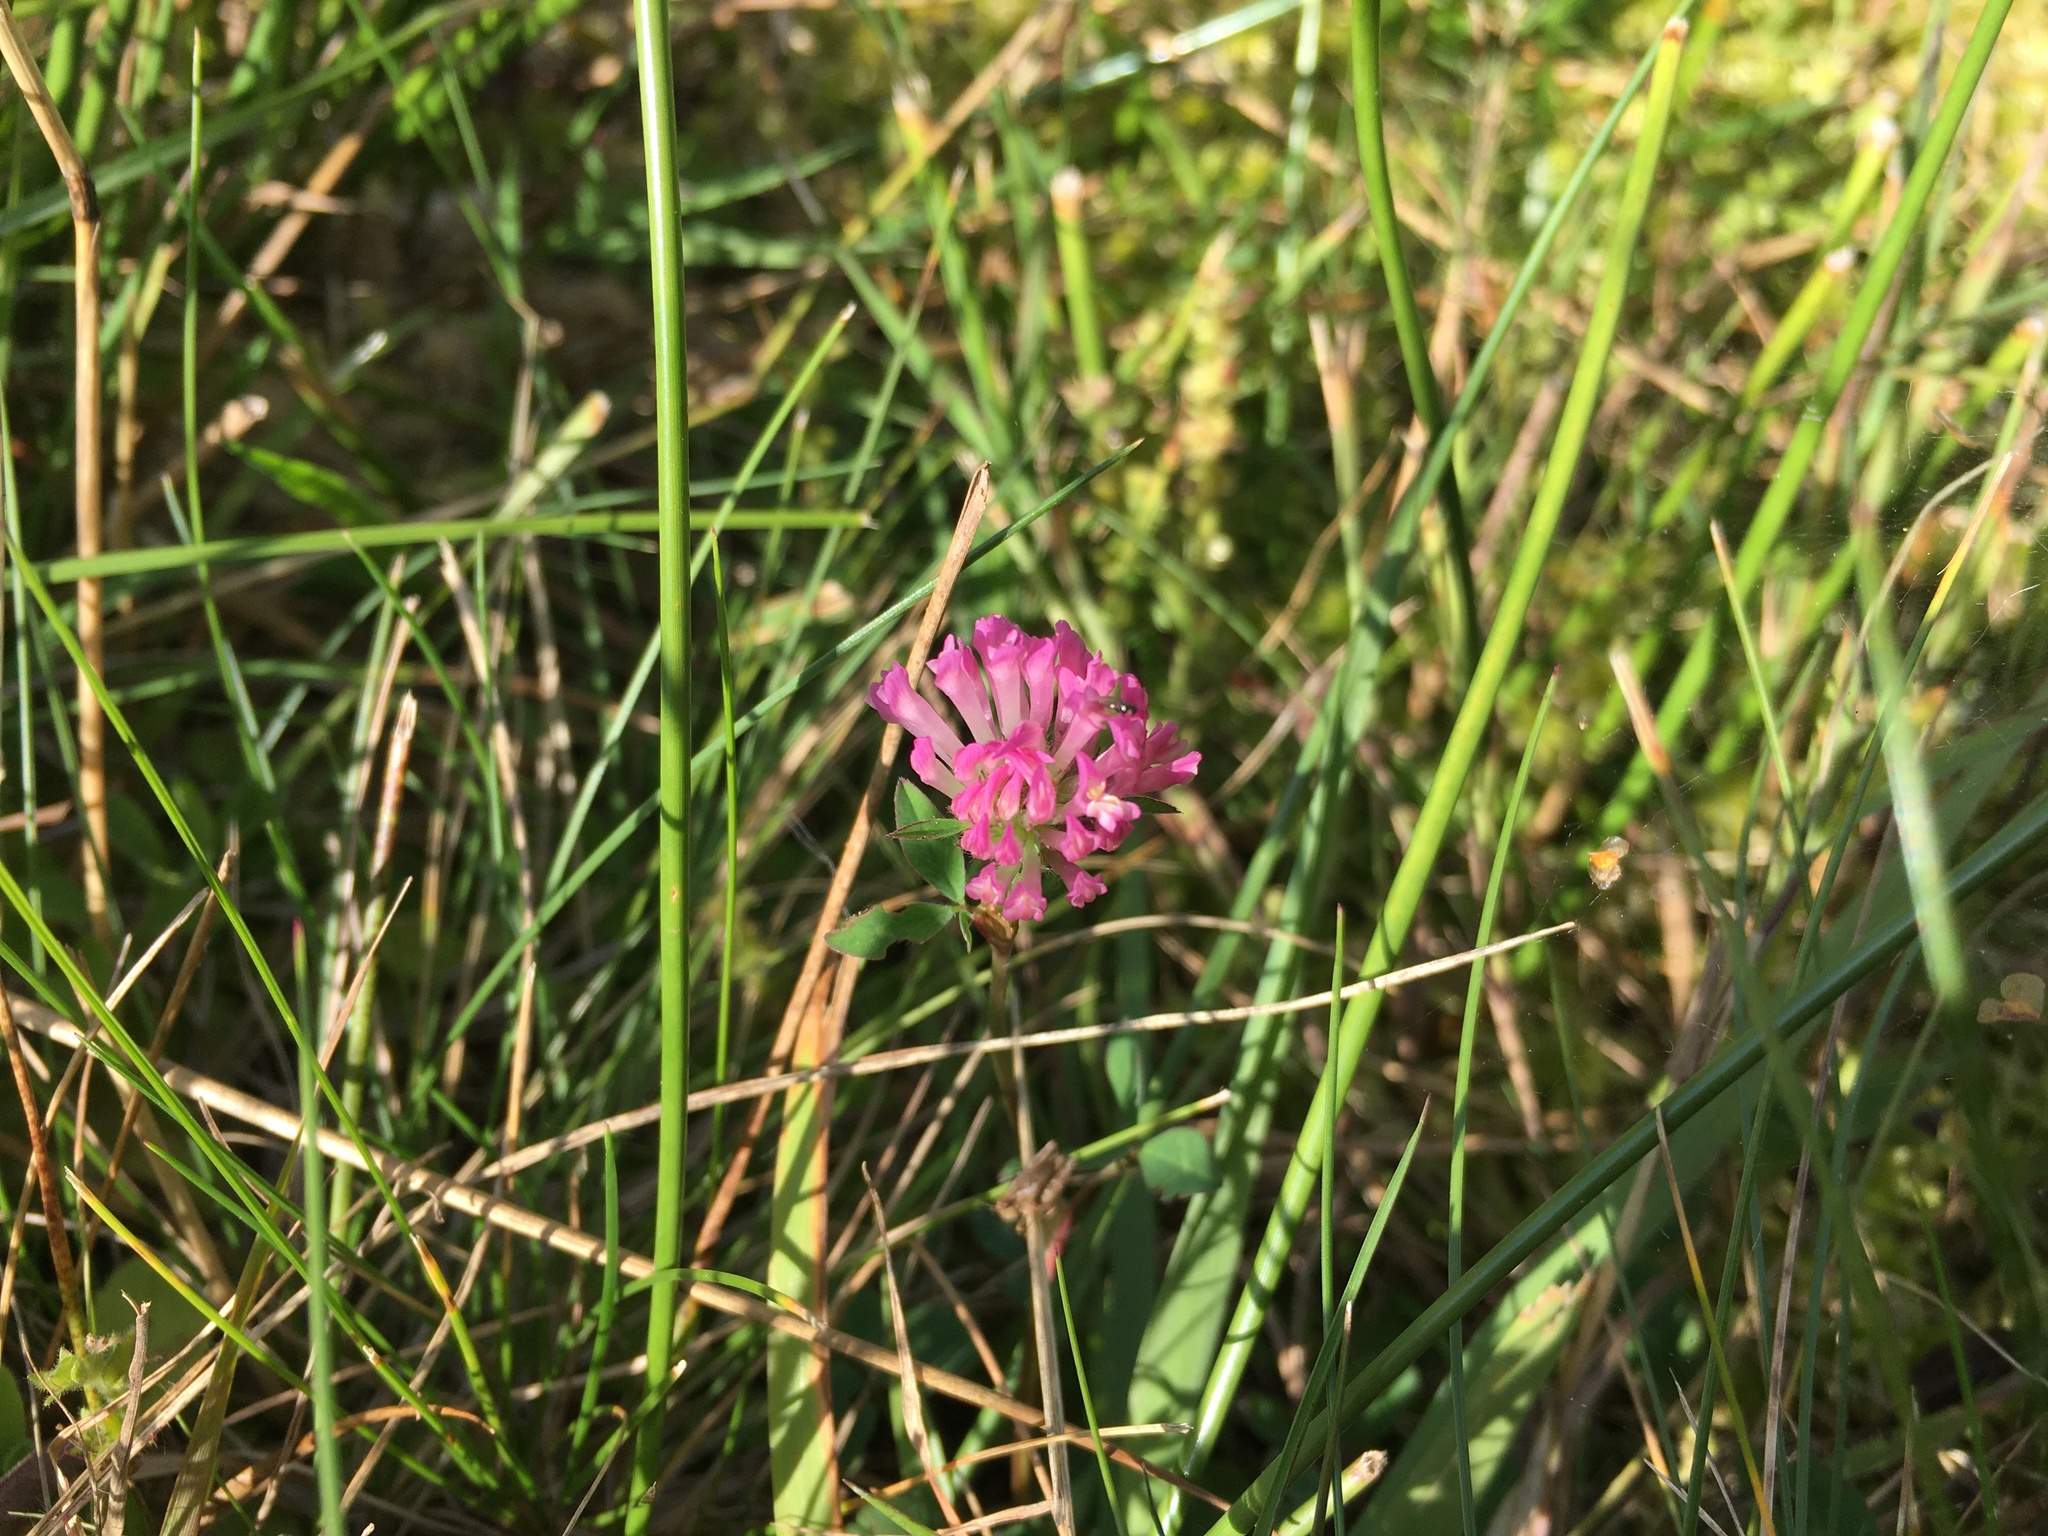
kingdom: Plantae
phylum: Tracheophyta
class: Magnoliopsida
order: Fabales
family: Fabaceae
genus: Trifolium
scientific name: Trifolium pratense
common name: Red clover
